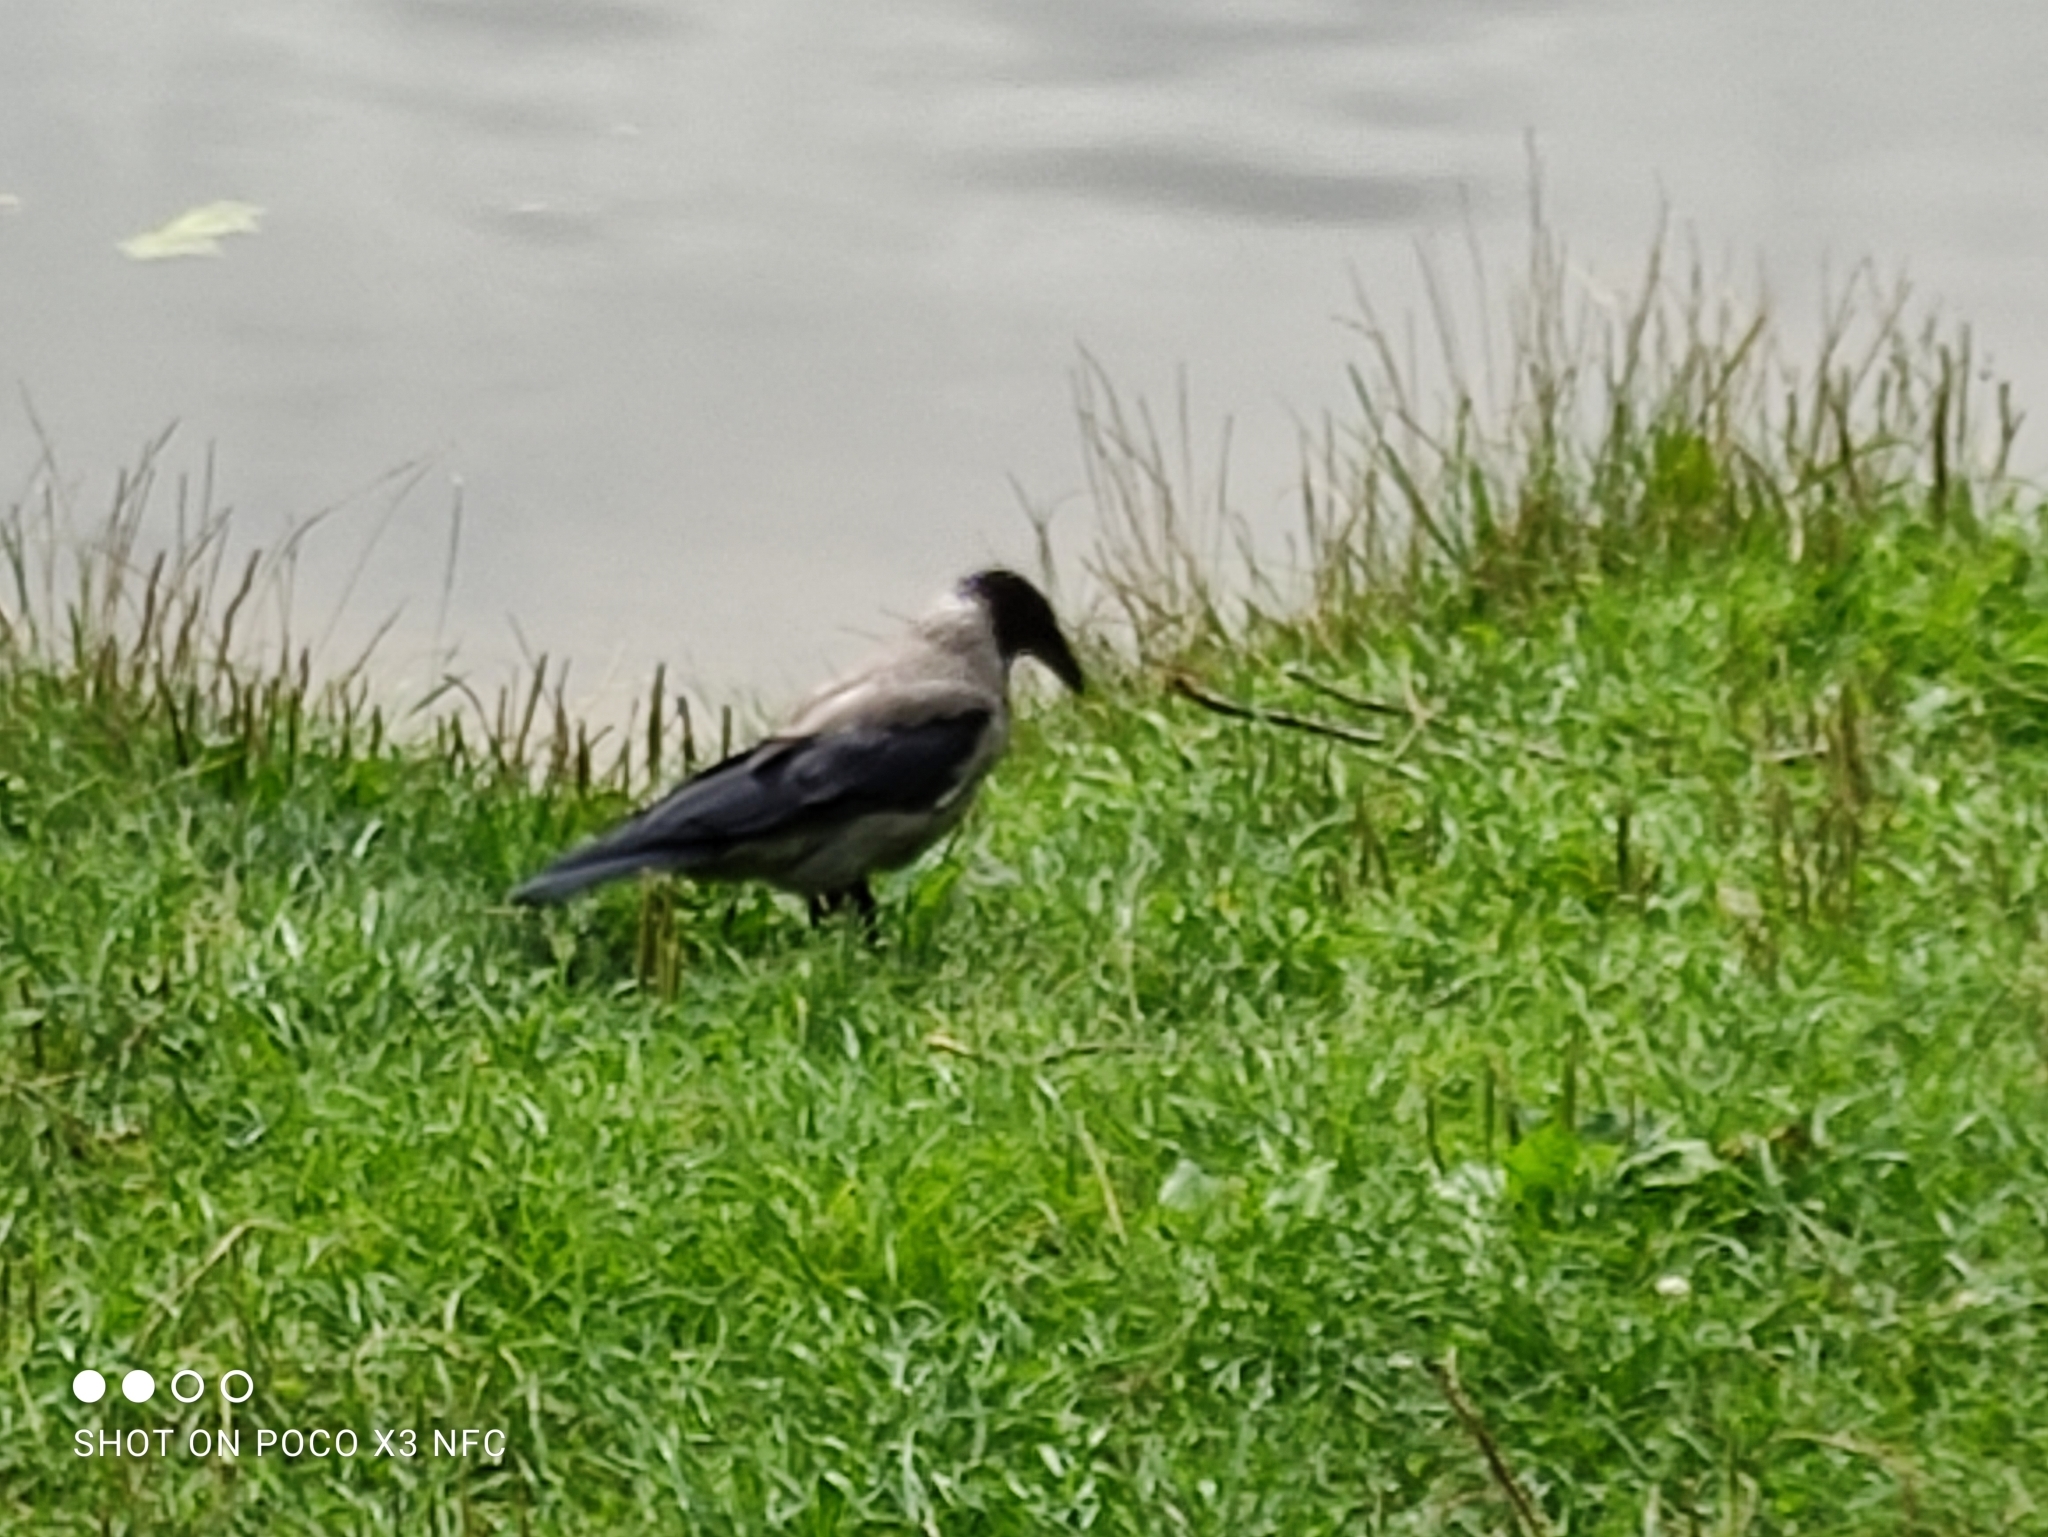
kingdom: Animalia
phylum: Chordata
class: Aves
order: Passeriformes
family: Corvidae
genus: Corvus
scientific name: Corvus cornix
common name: Hooded crow
